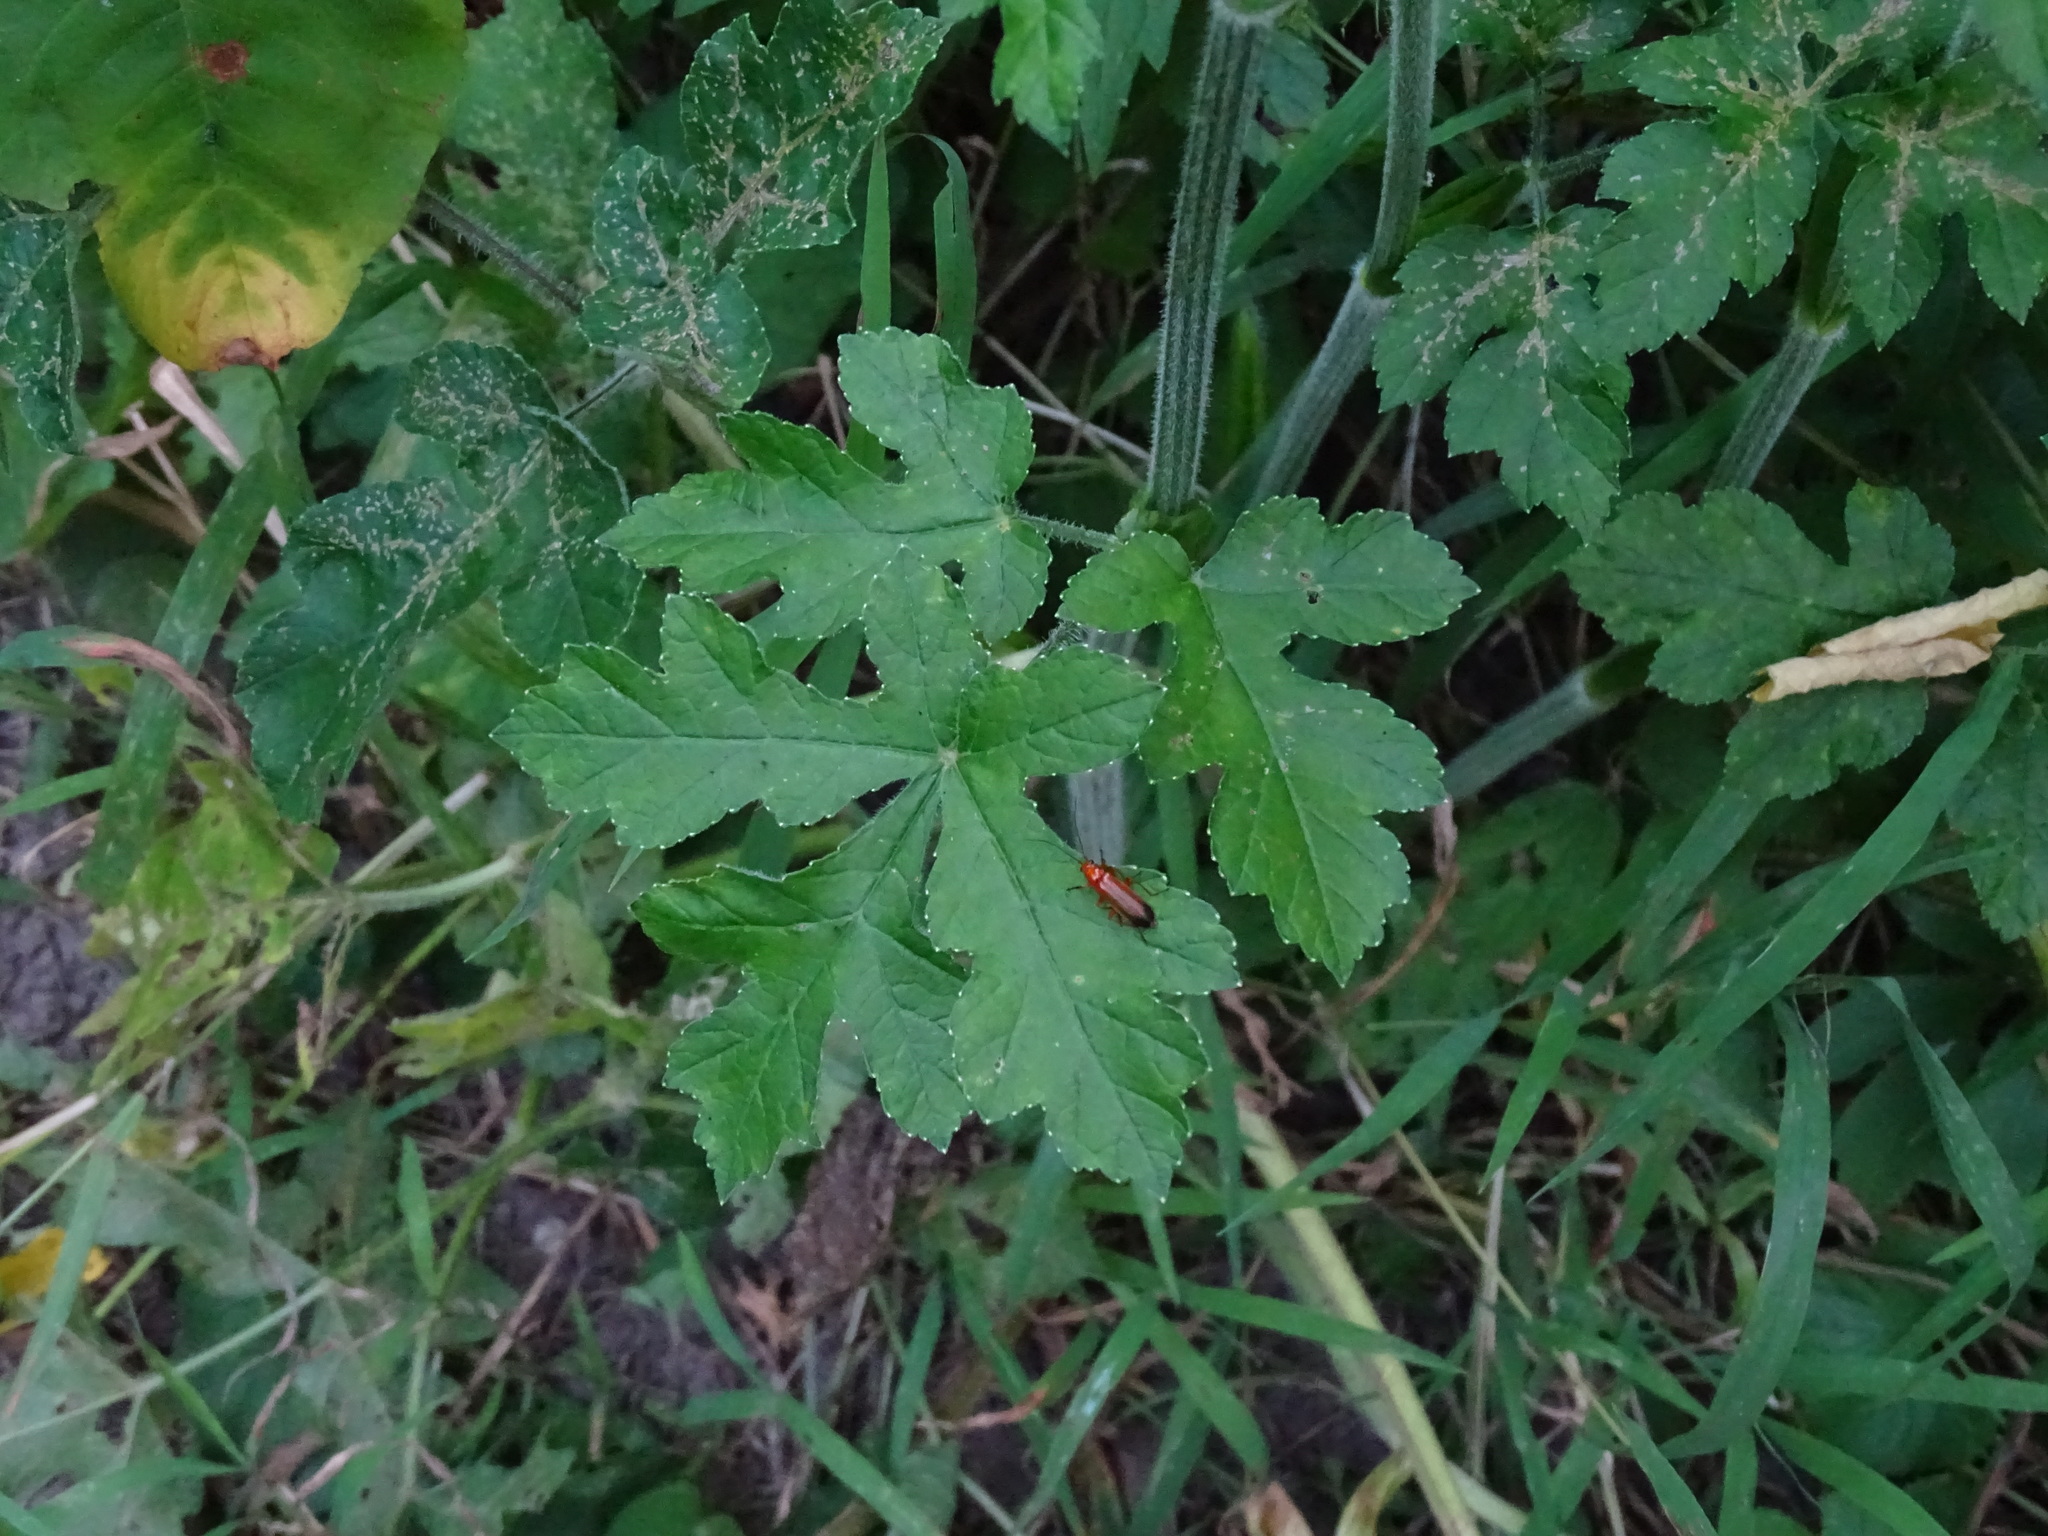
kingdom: Plantae
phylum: Tracheophyta
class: Magnoliopsida
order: Apiales
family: Apiaceae
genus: Heracleum
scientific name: Heracleum sphondylium
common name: Hogweed
